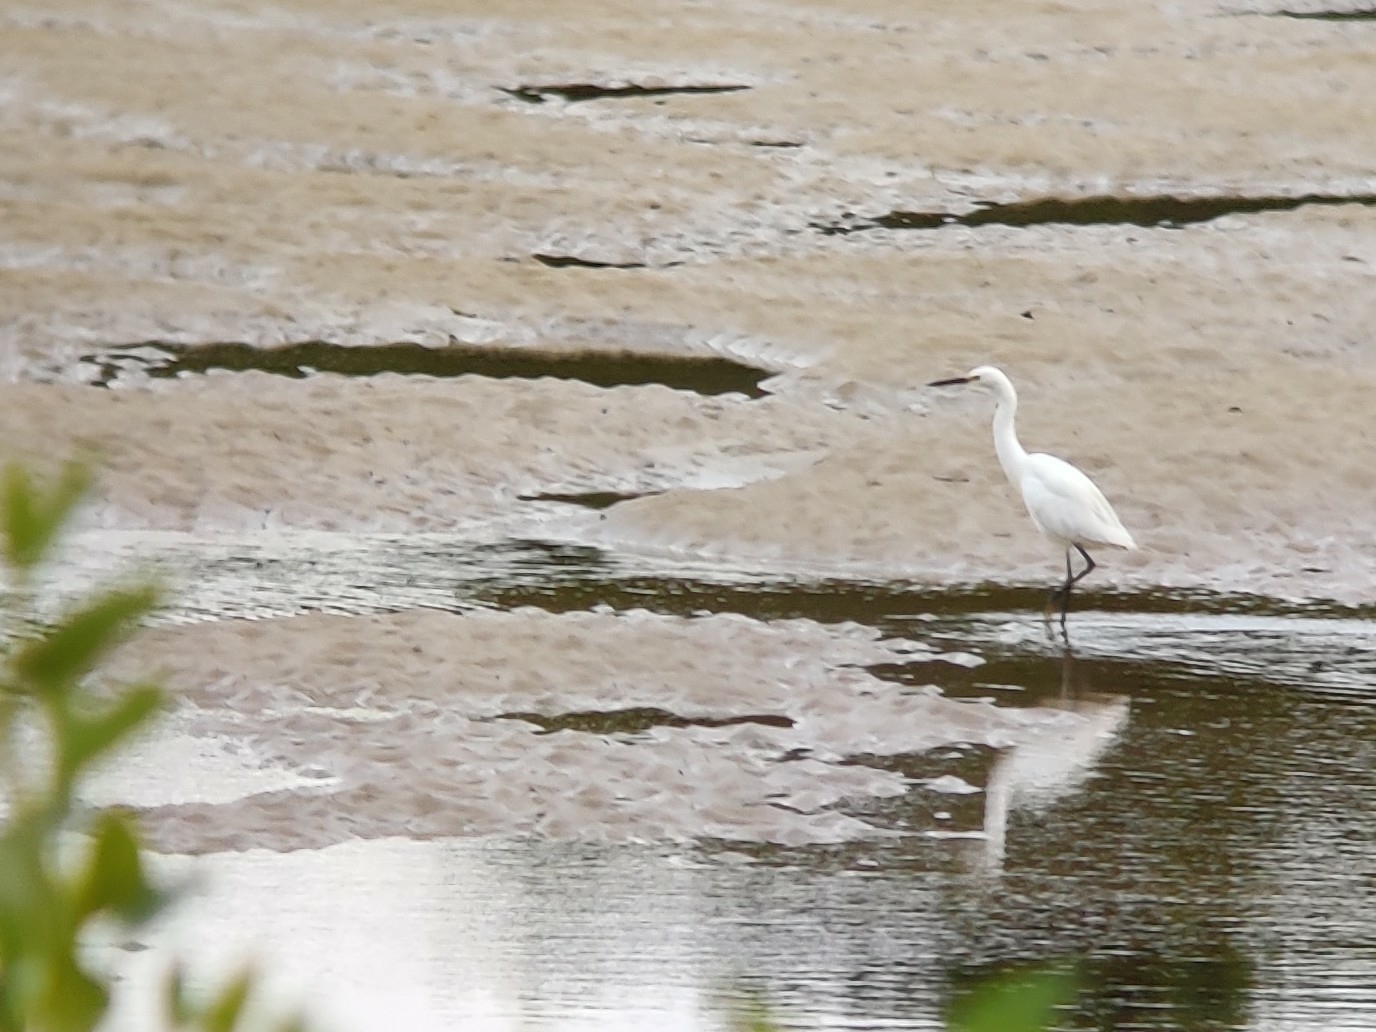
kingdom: Animalia
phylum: Chordata
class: Aves
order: Pelecaniformes
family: Ardeidae
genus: Egretta
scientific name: Egretta garzetta
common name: Little egret
